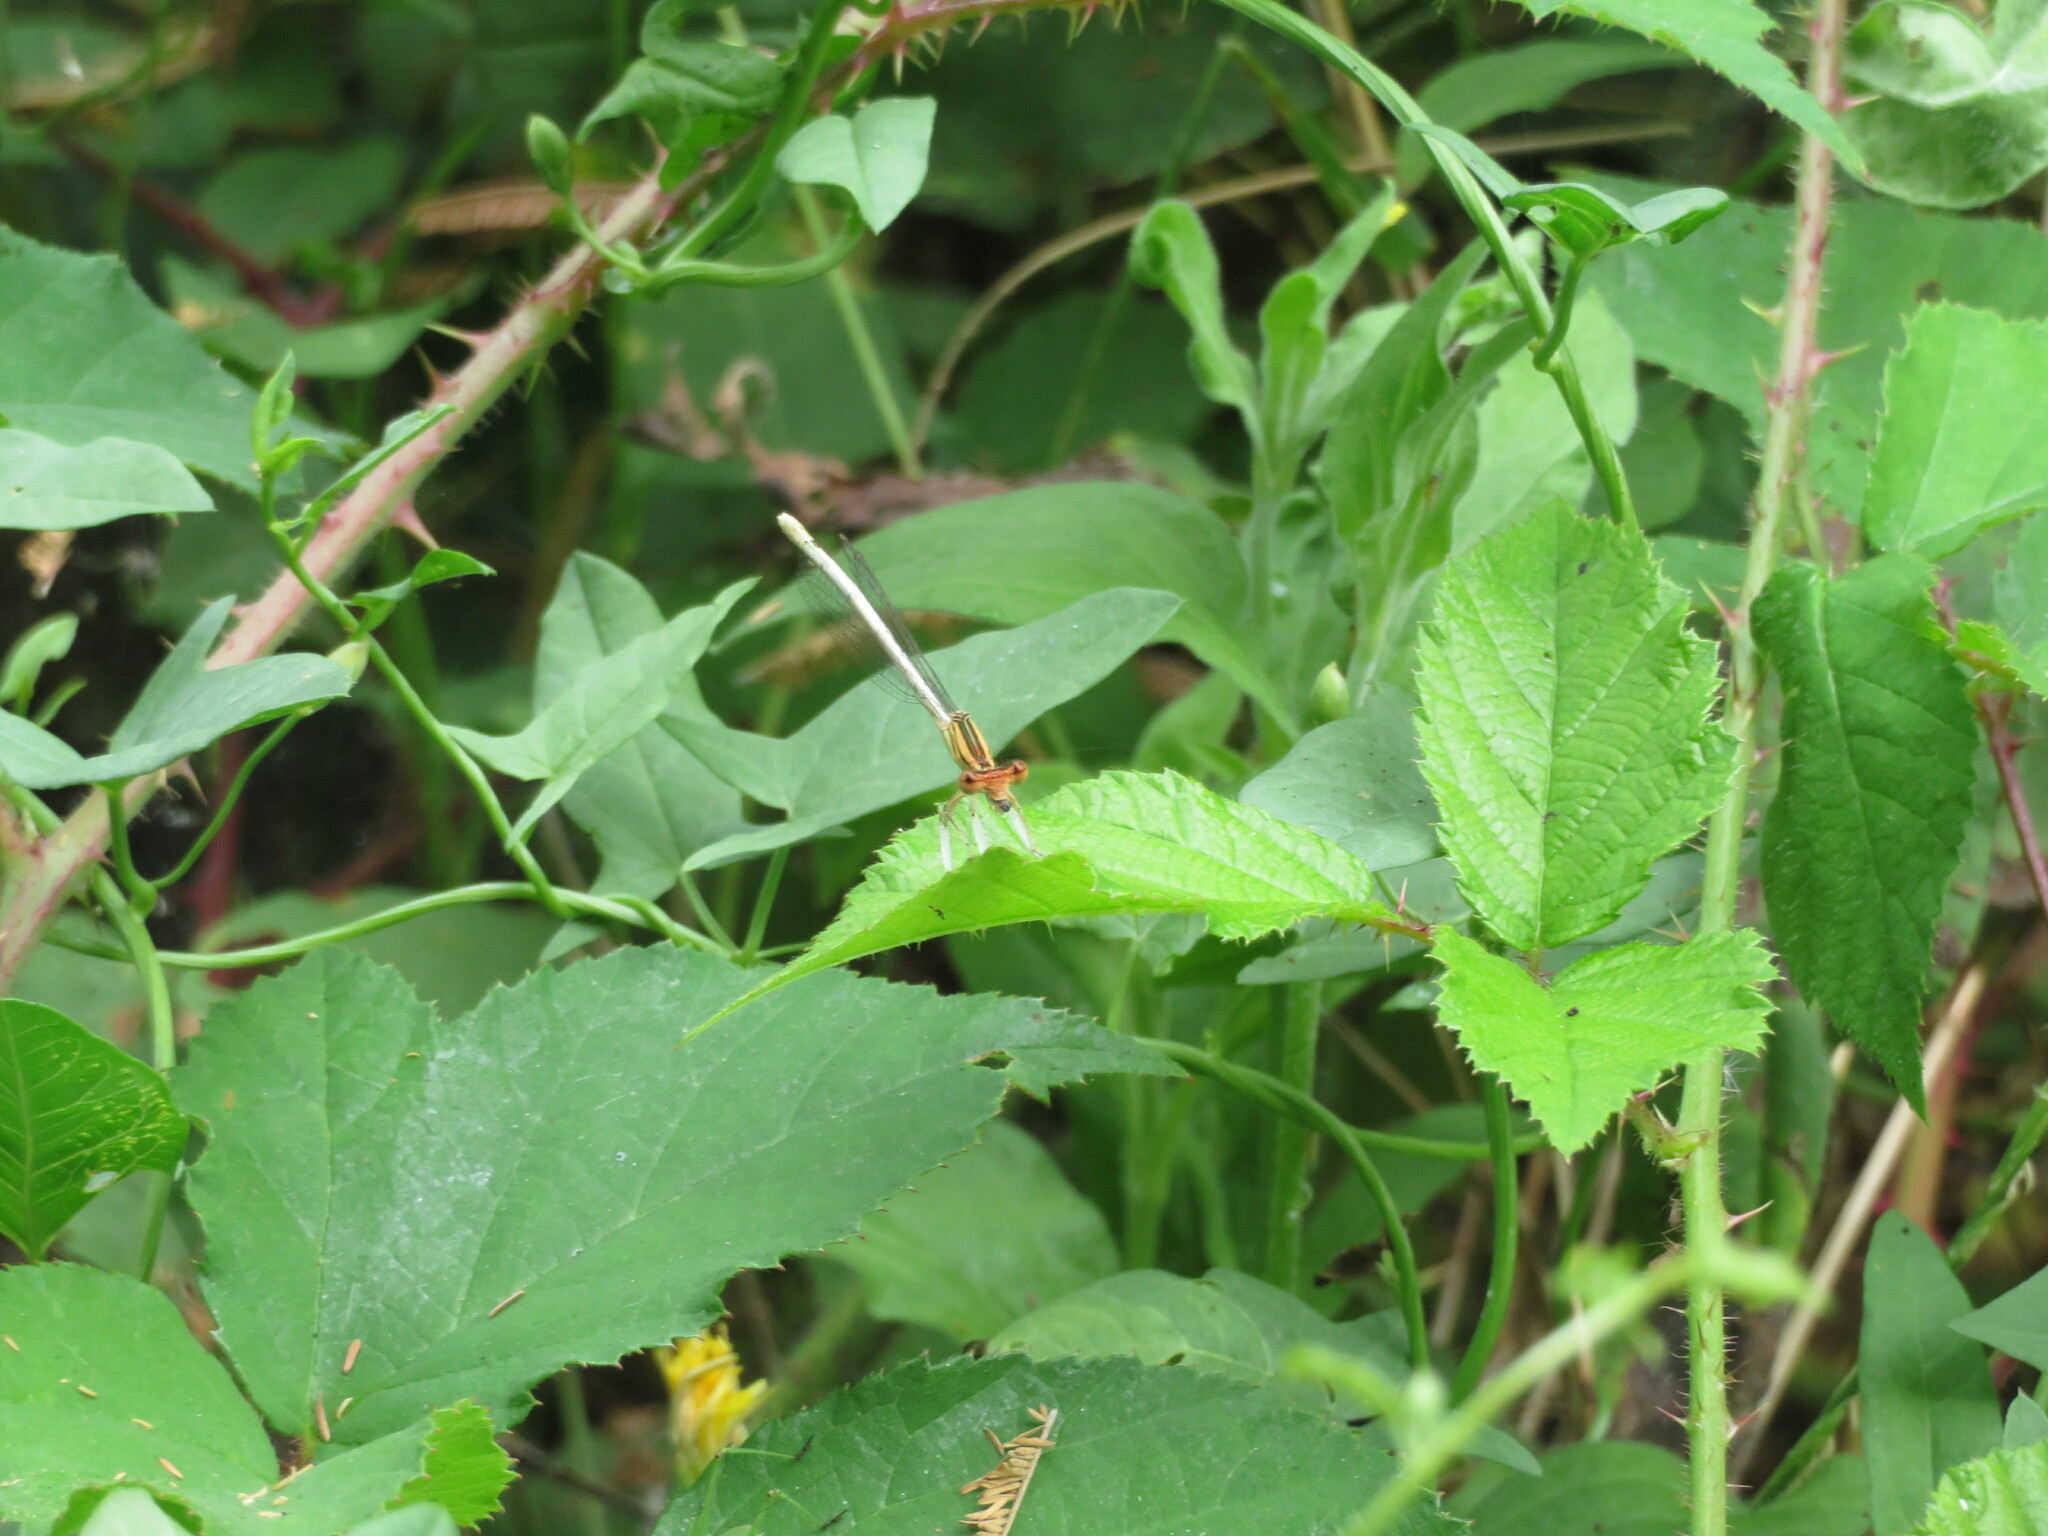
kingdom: Animalia
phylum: Arthropoda
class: Insecta
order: Odonata
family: Platycnemididae
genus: Platycnemis
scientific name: Platycnemis latipes
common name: White featherleg
